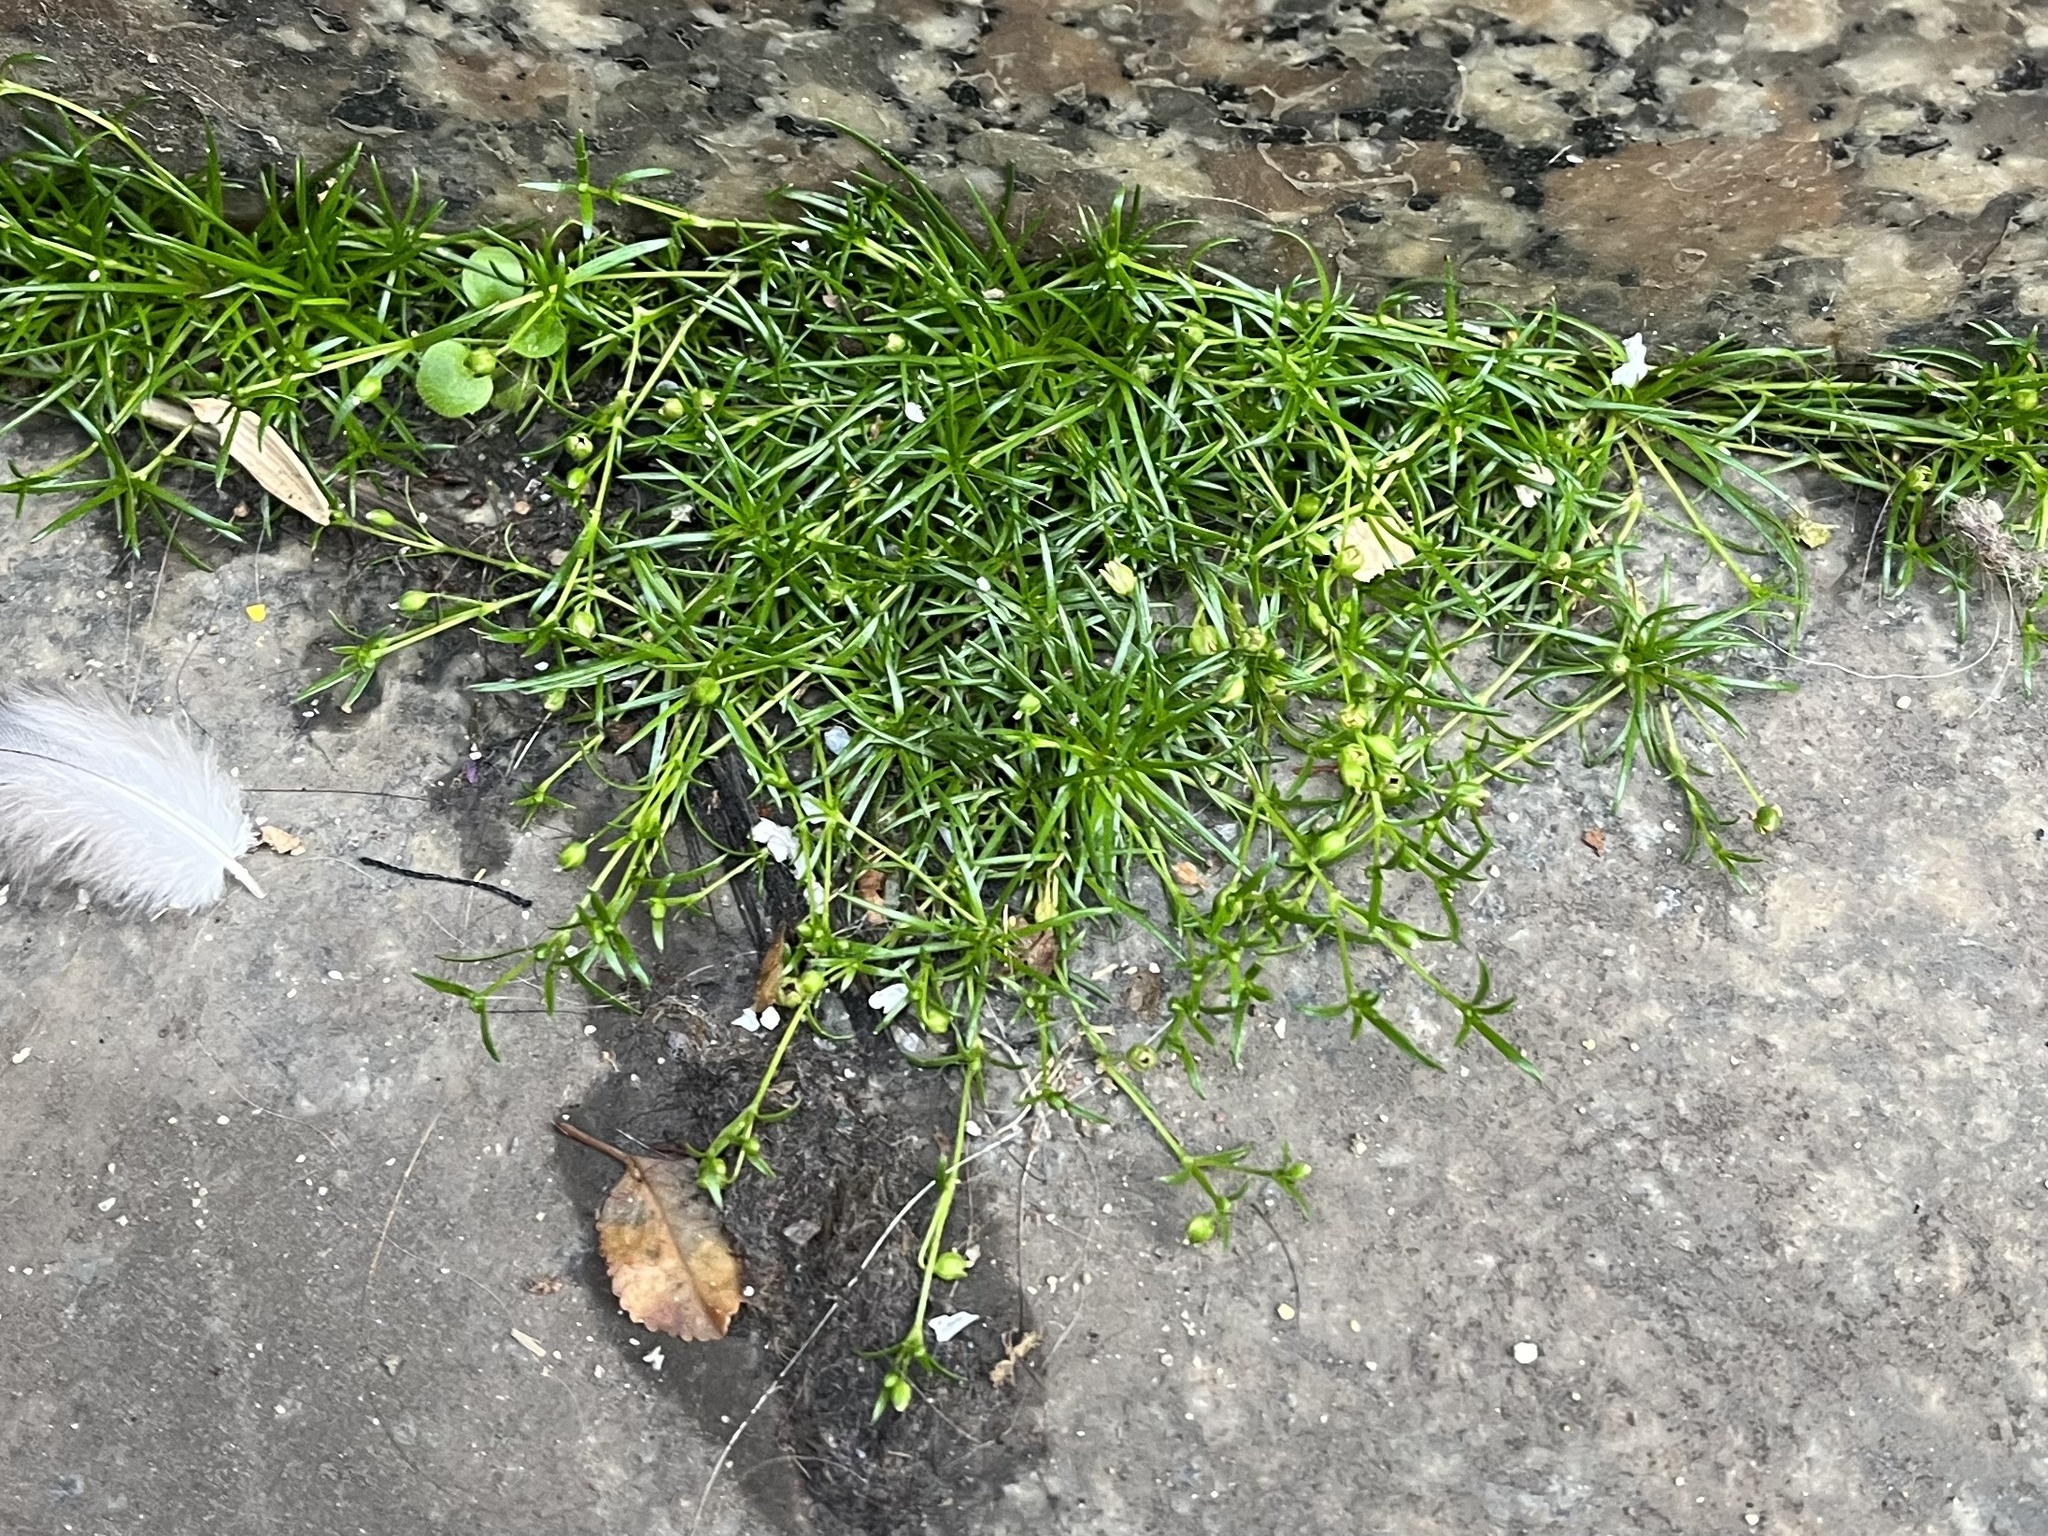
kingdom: Plantae
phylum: Tracheophyta
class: Magnoliopsida
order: Caryophyllales
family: Caryophyllaceae
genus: Sagina
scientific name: Sagina procumbens
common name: Procumbent pearlwort
